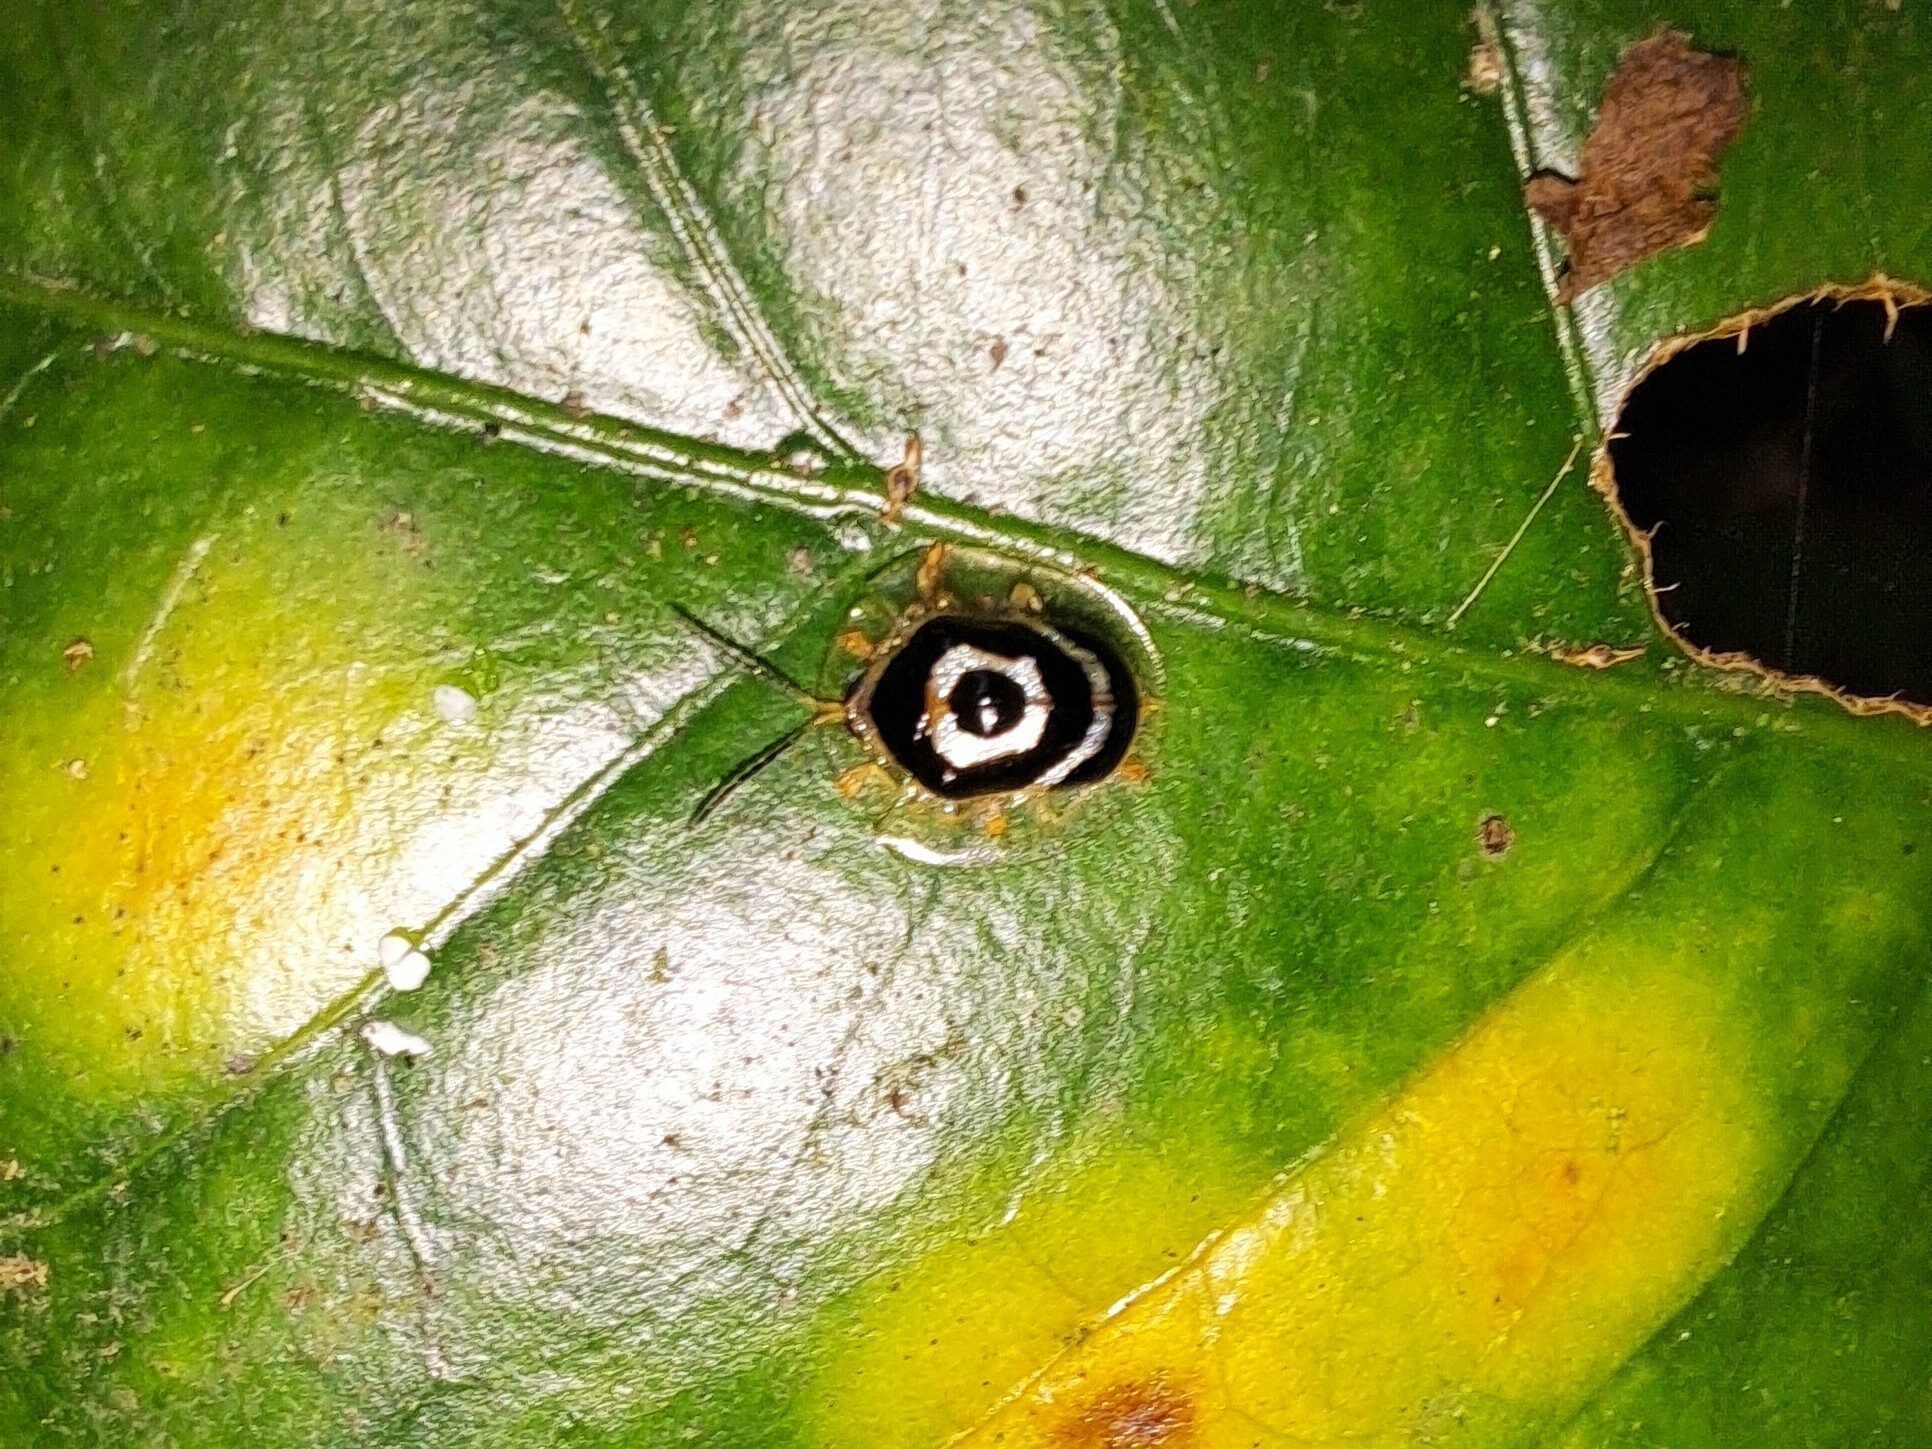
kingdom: Animalia
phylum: Arthropoda
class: Insecta
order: Coleoptera
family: Chrysomelidae
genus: Ischnocodia
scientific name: Ischnocodia annulus
